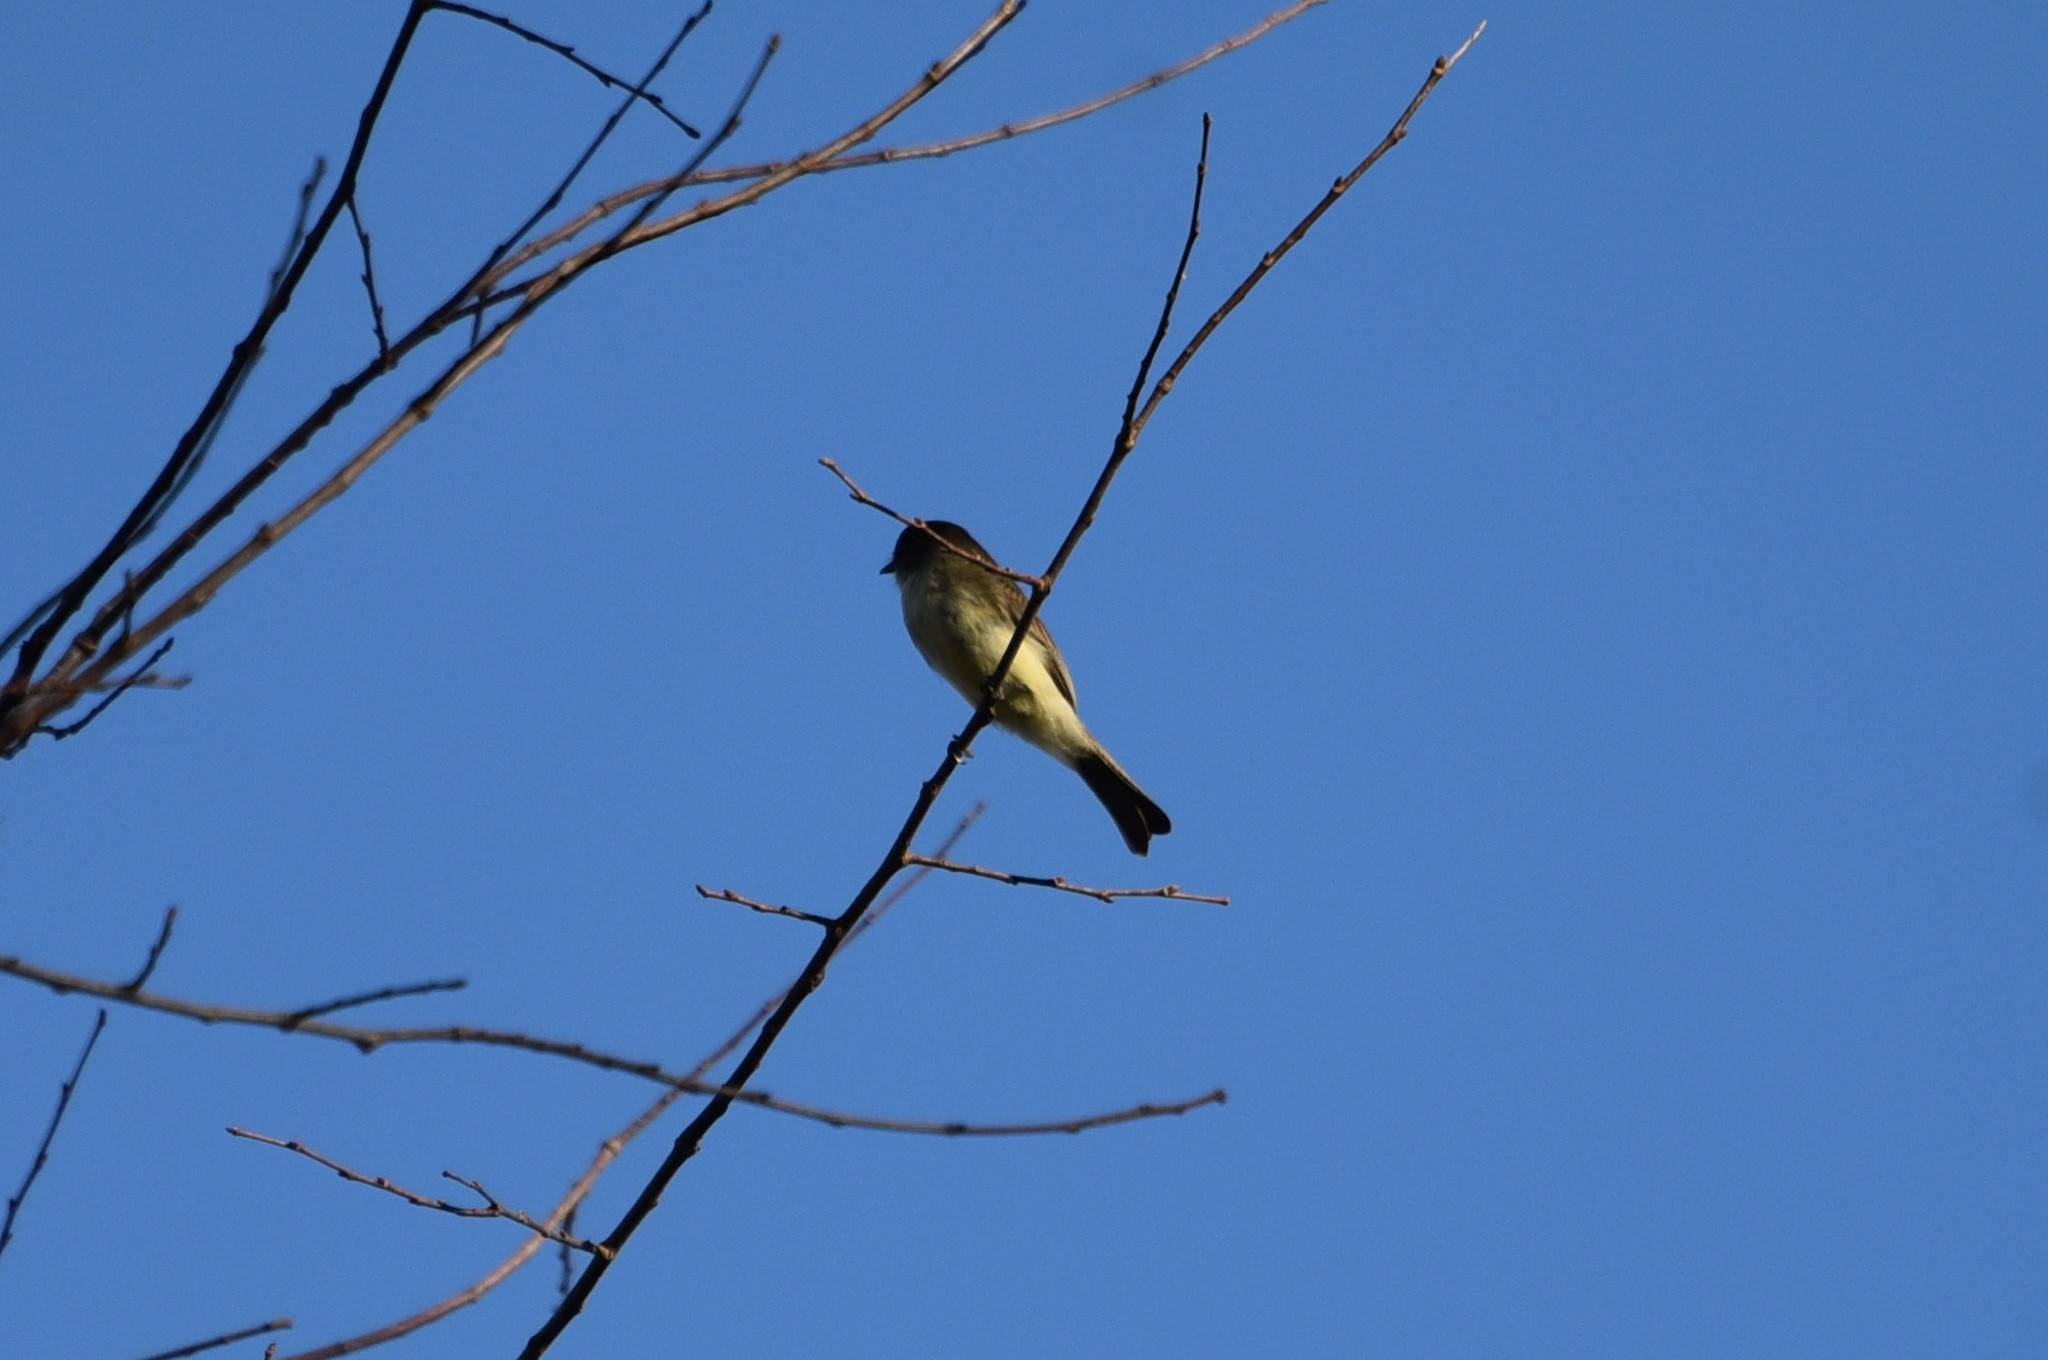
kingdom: Animalia
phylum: Chordata
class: Aves
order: Passeriformes
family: Tyrannidae
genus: Sayornis
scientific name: Sayornis phoebe
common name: Eastern phoebe
